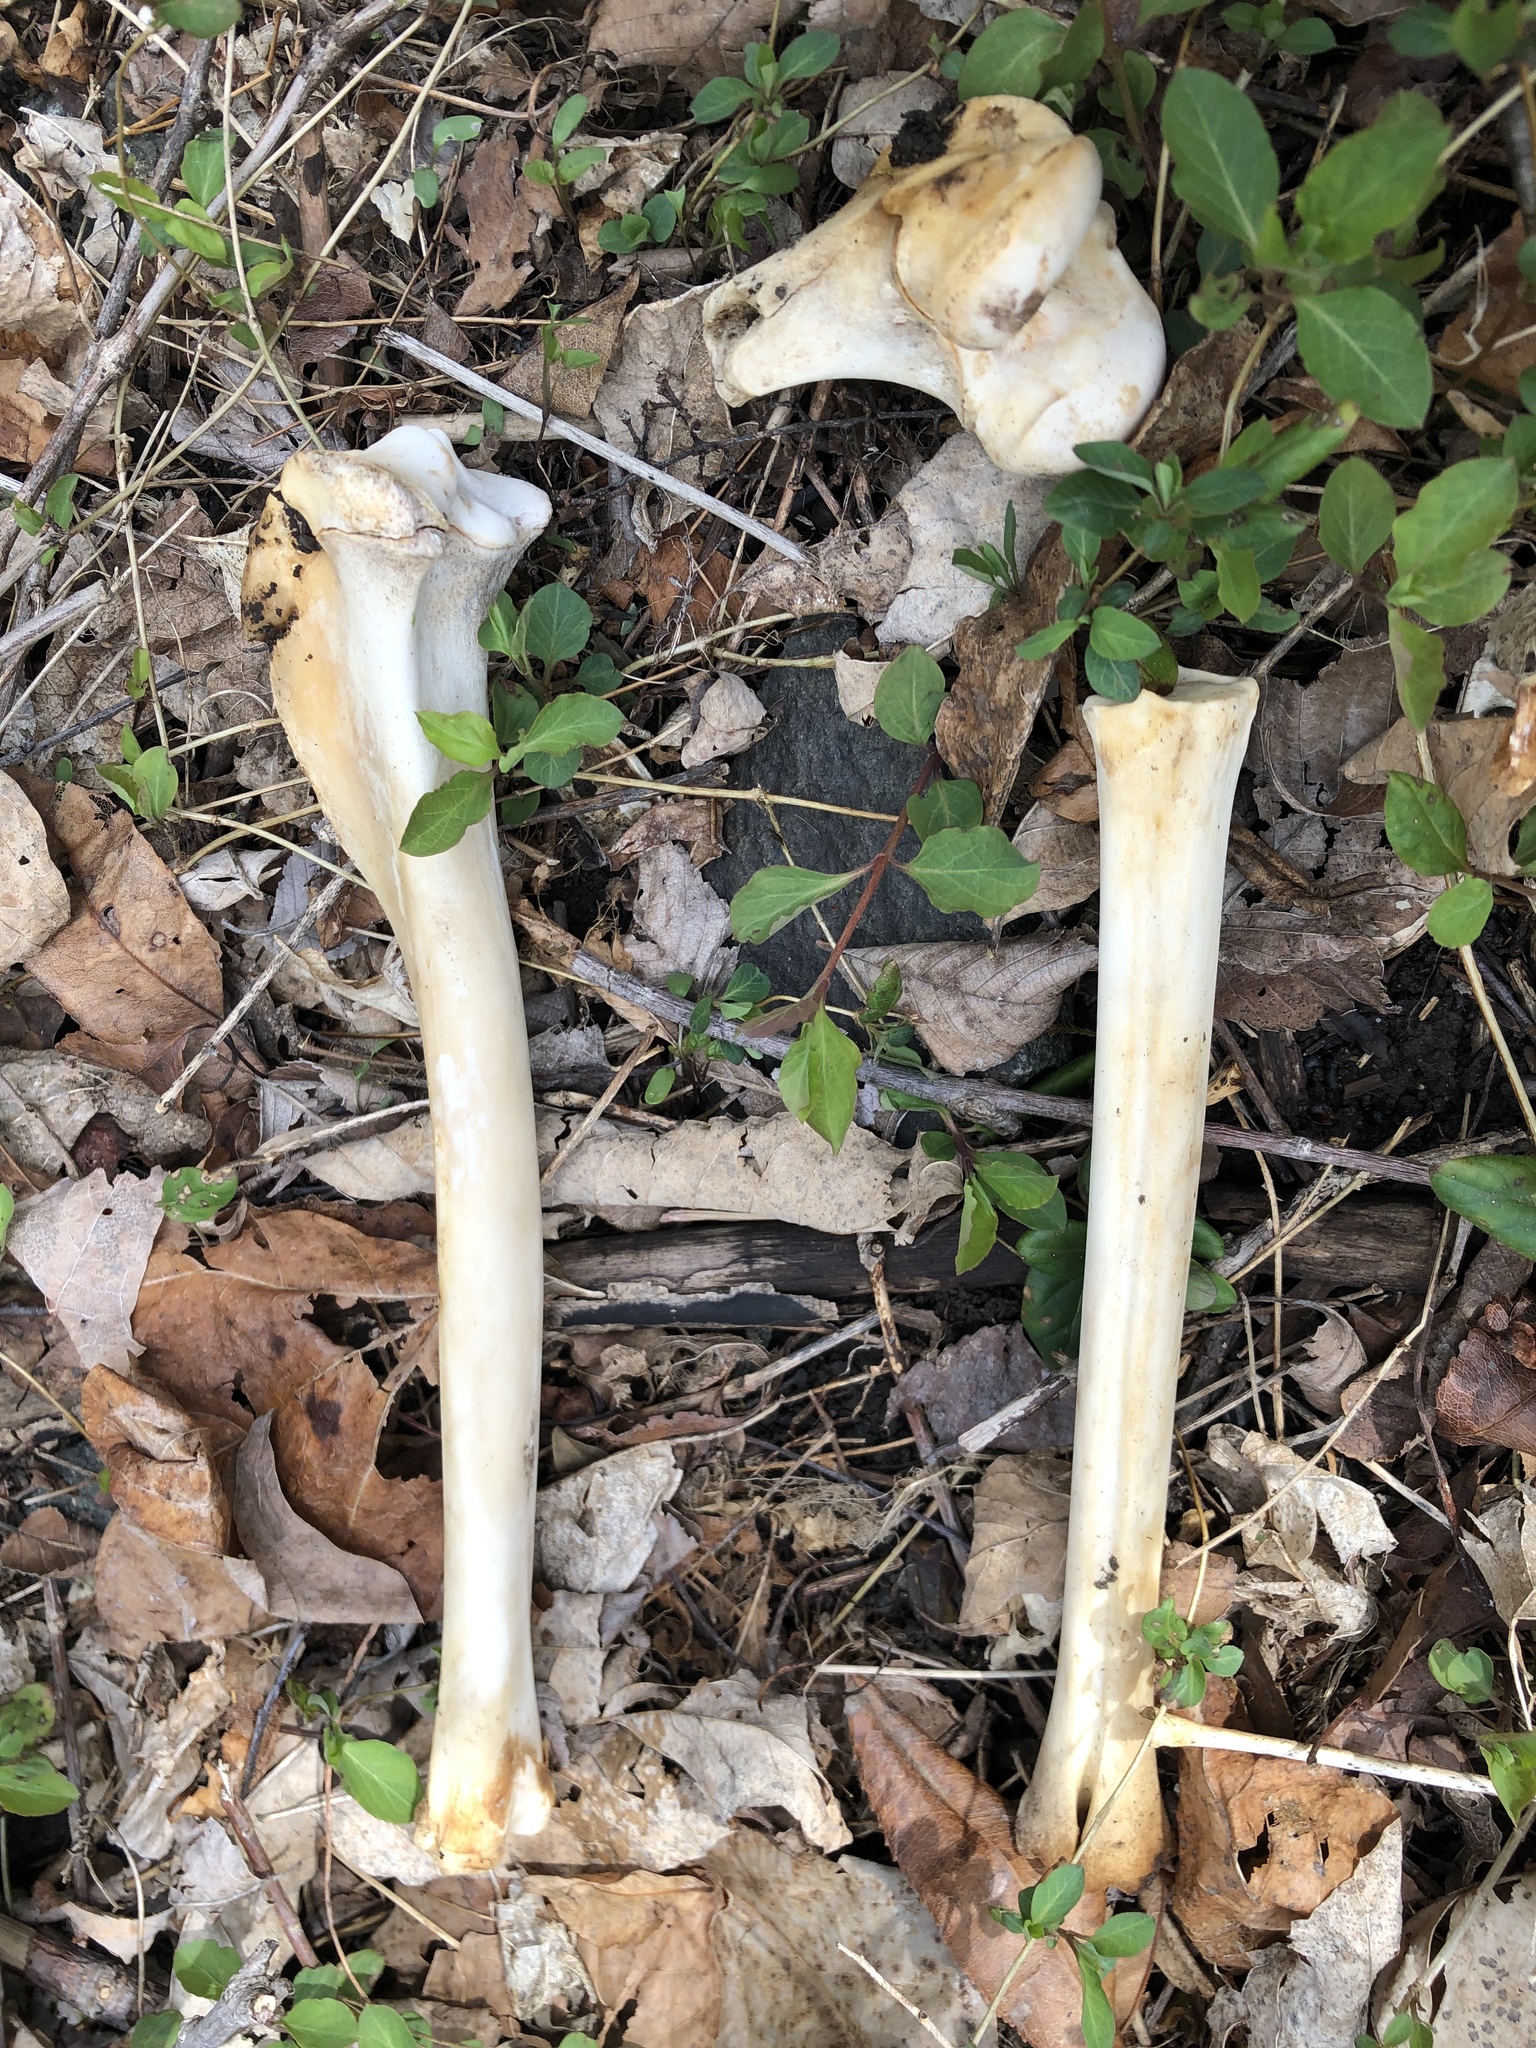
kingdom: Animalia
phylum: Chordata
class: Mammalia
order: Artiodactyla
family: Cervidae
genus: Odocoileus
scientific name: Odocoileus virginianus
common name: White-tailed deer
